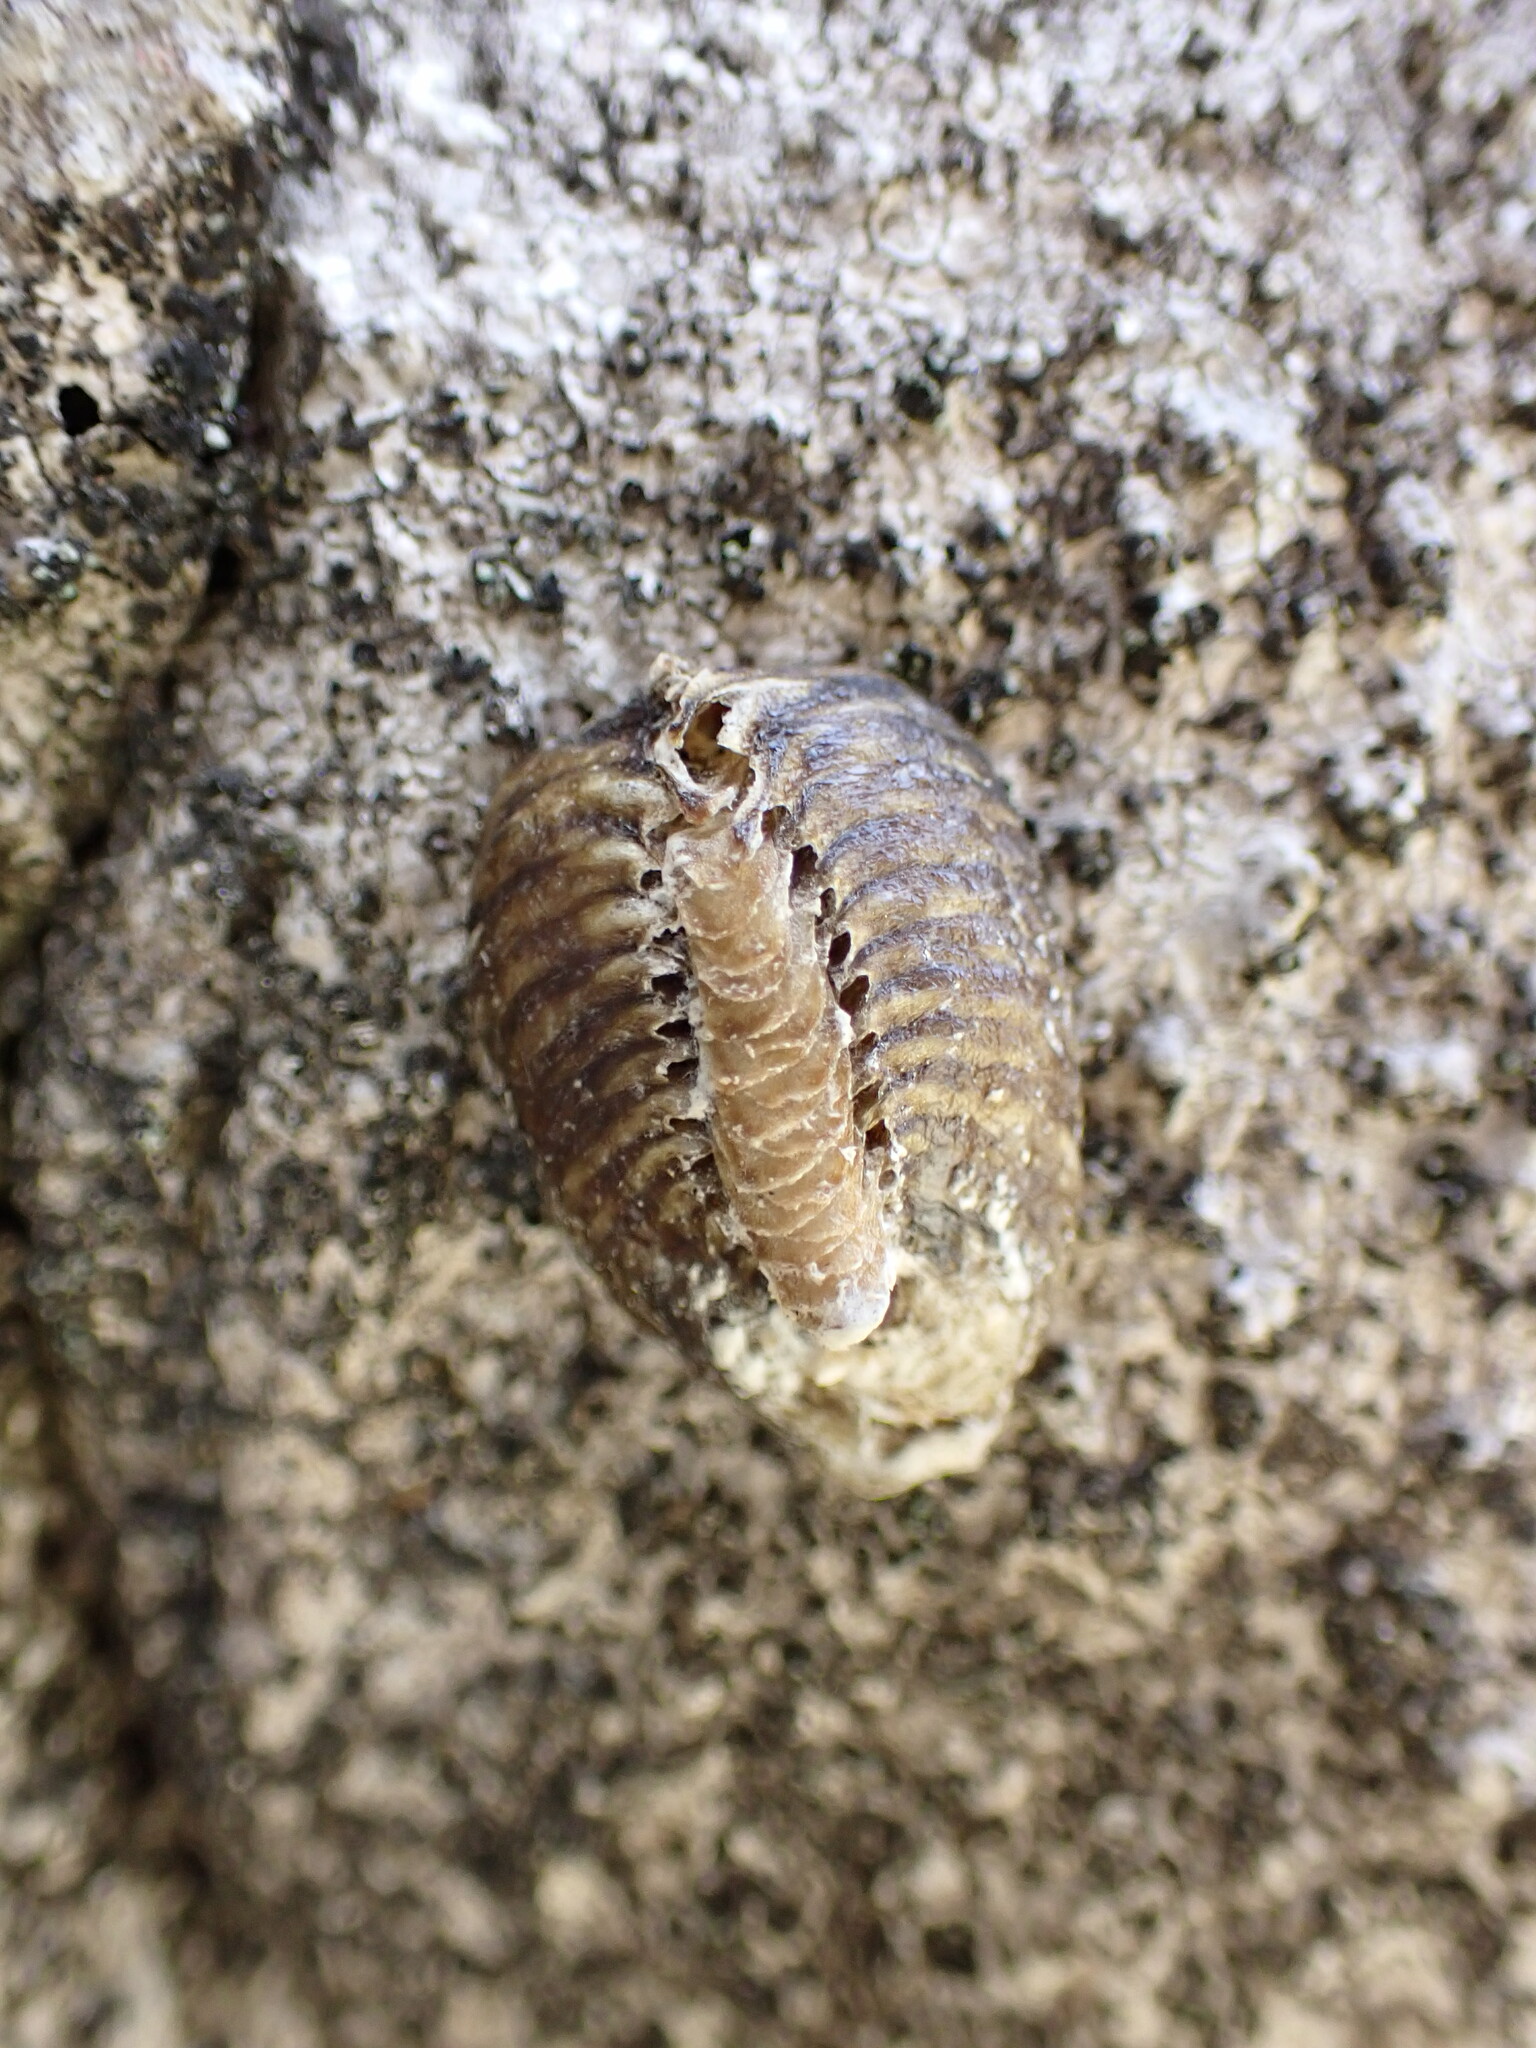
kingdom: Animalia
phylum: Arthropoda
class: Insecta
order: Mantodea
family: Mantidae
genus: Hierodula
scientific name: Hierodula patellifera
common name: Asian mantis
